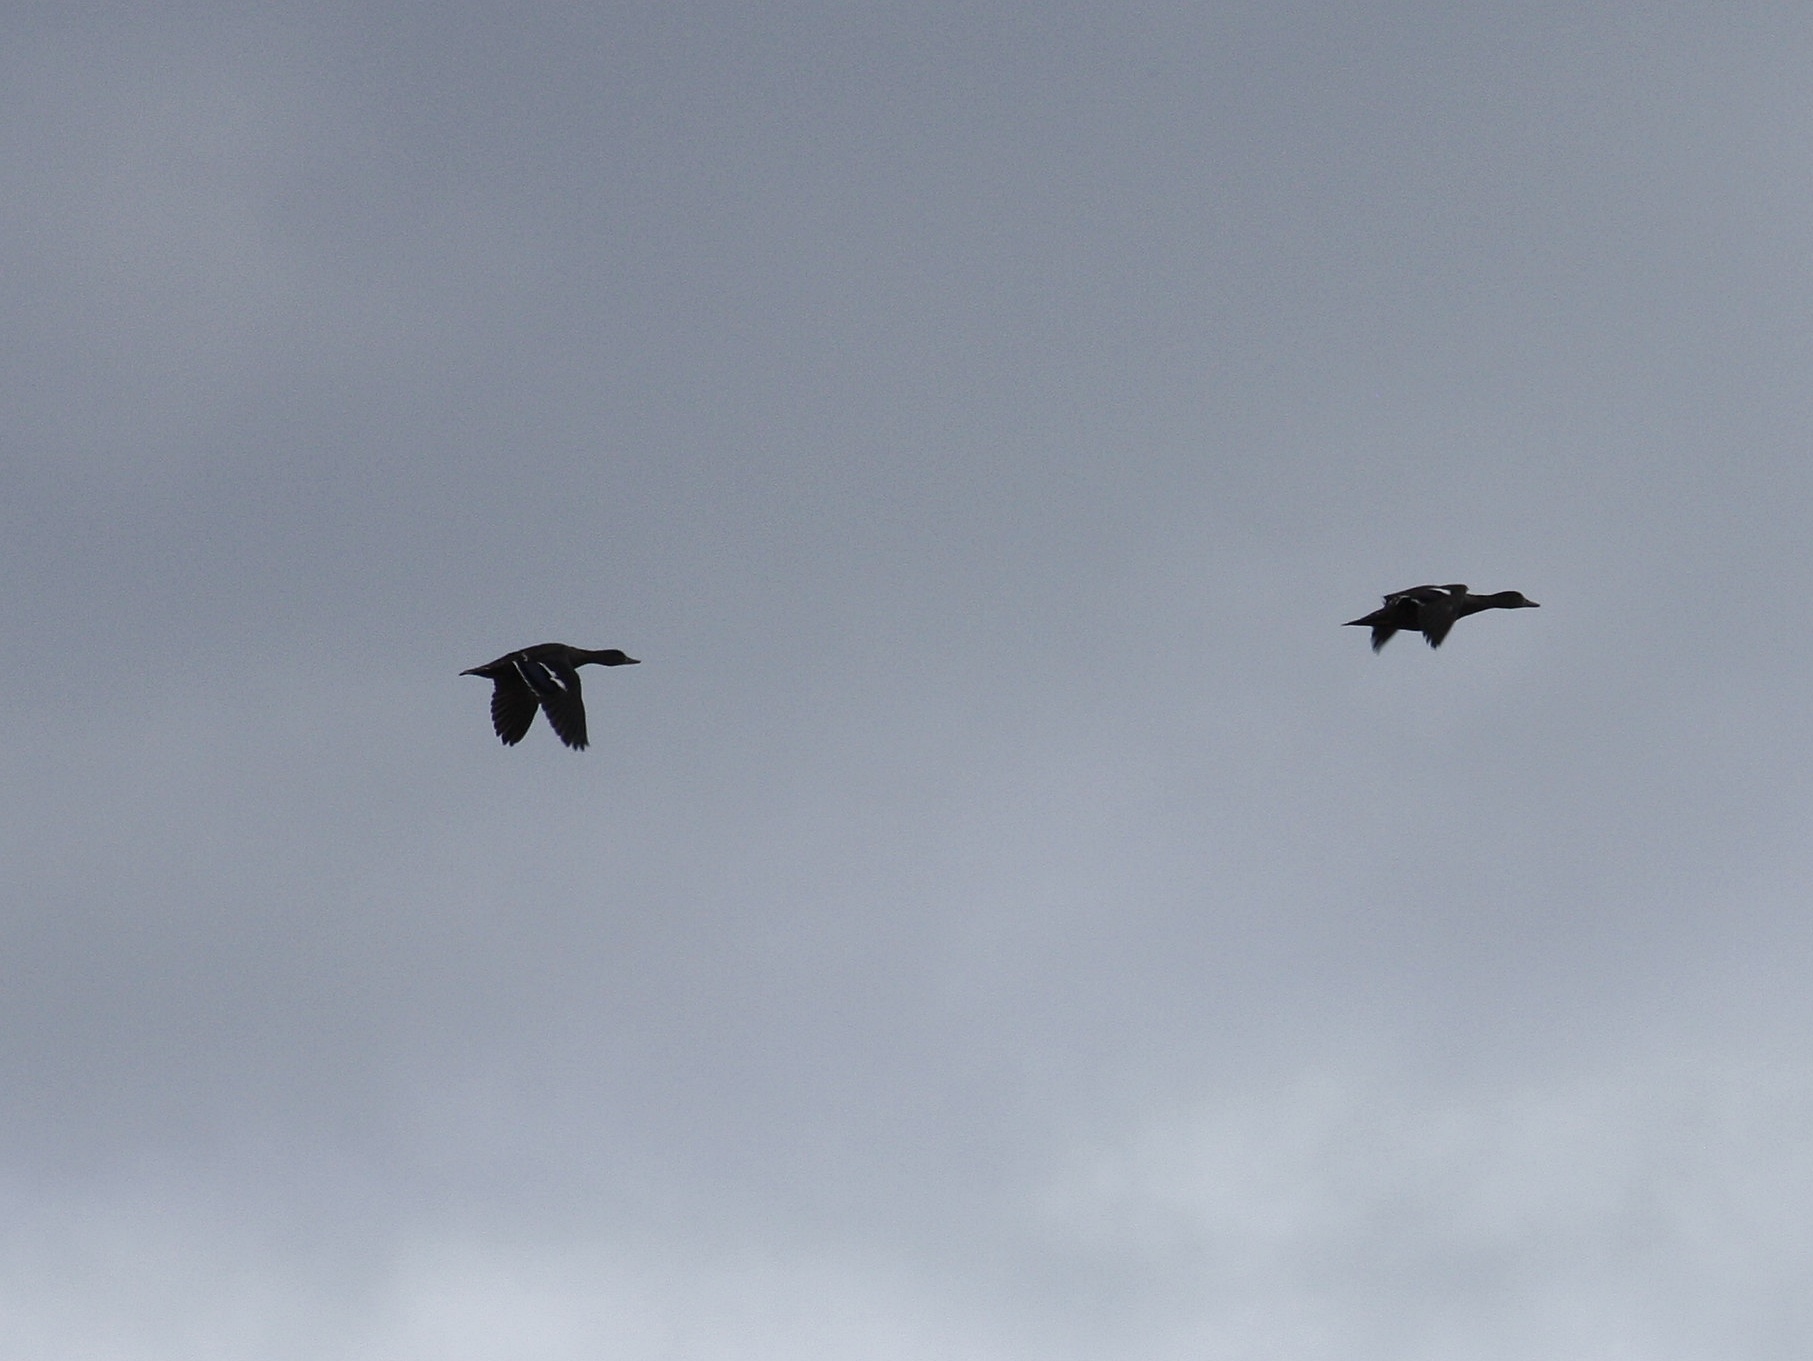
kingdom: Animalia
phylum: Chordata
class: Aves
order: Anseriformes
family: Anatidae
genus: Anas
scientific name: Anas sparsa
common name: African black duck
